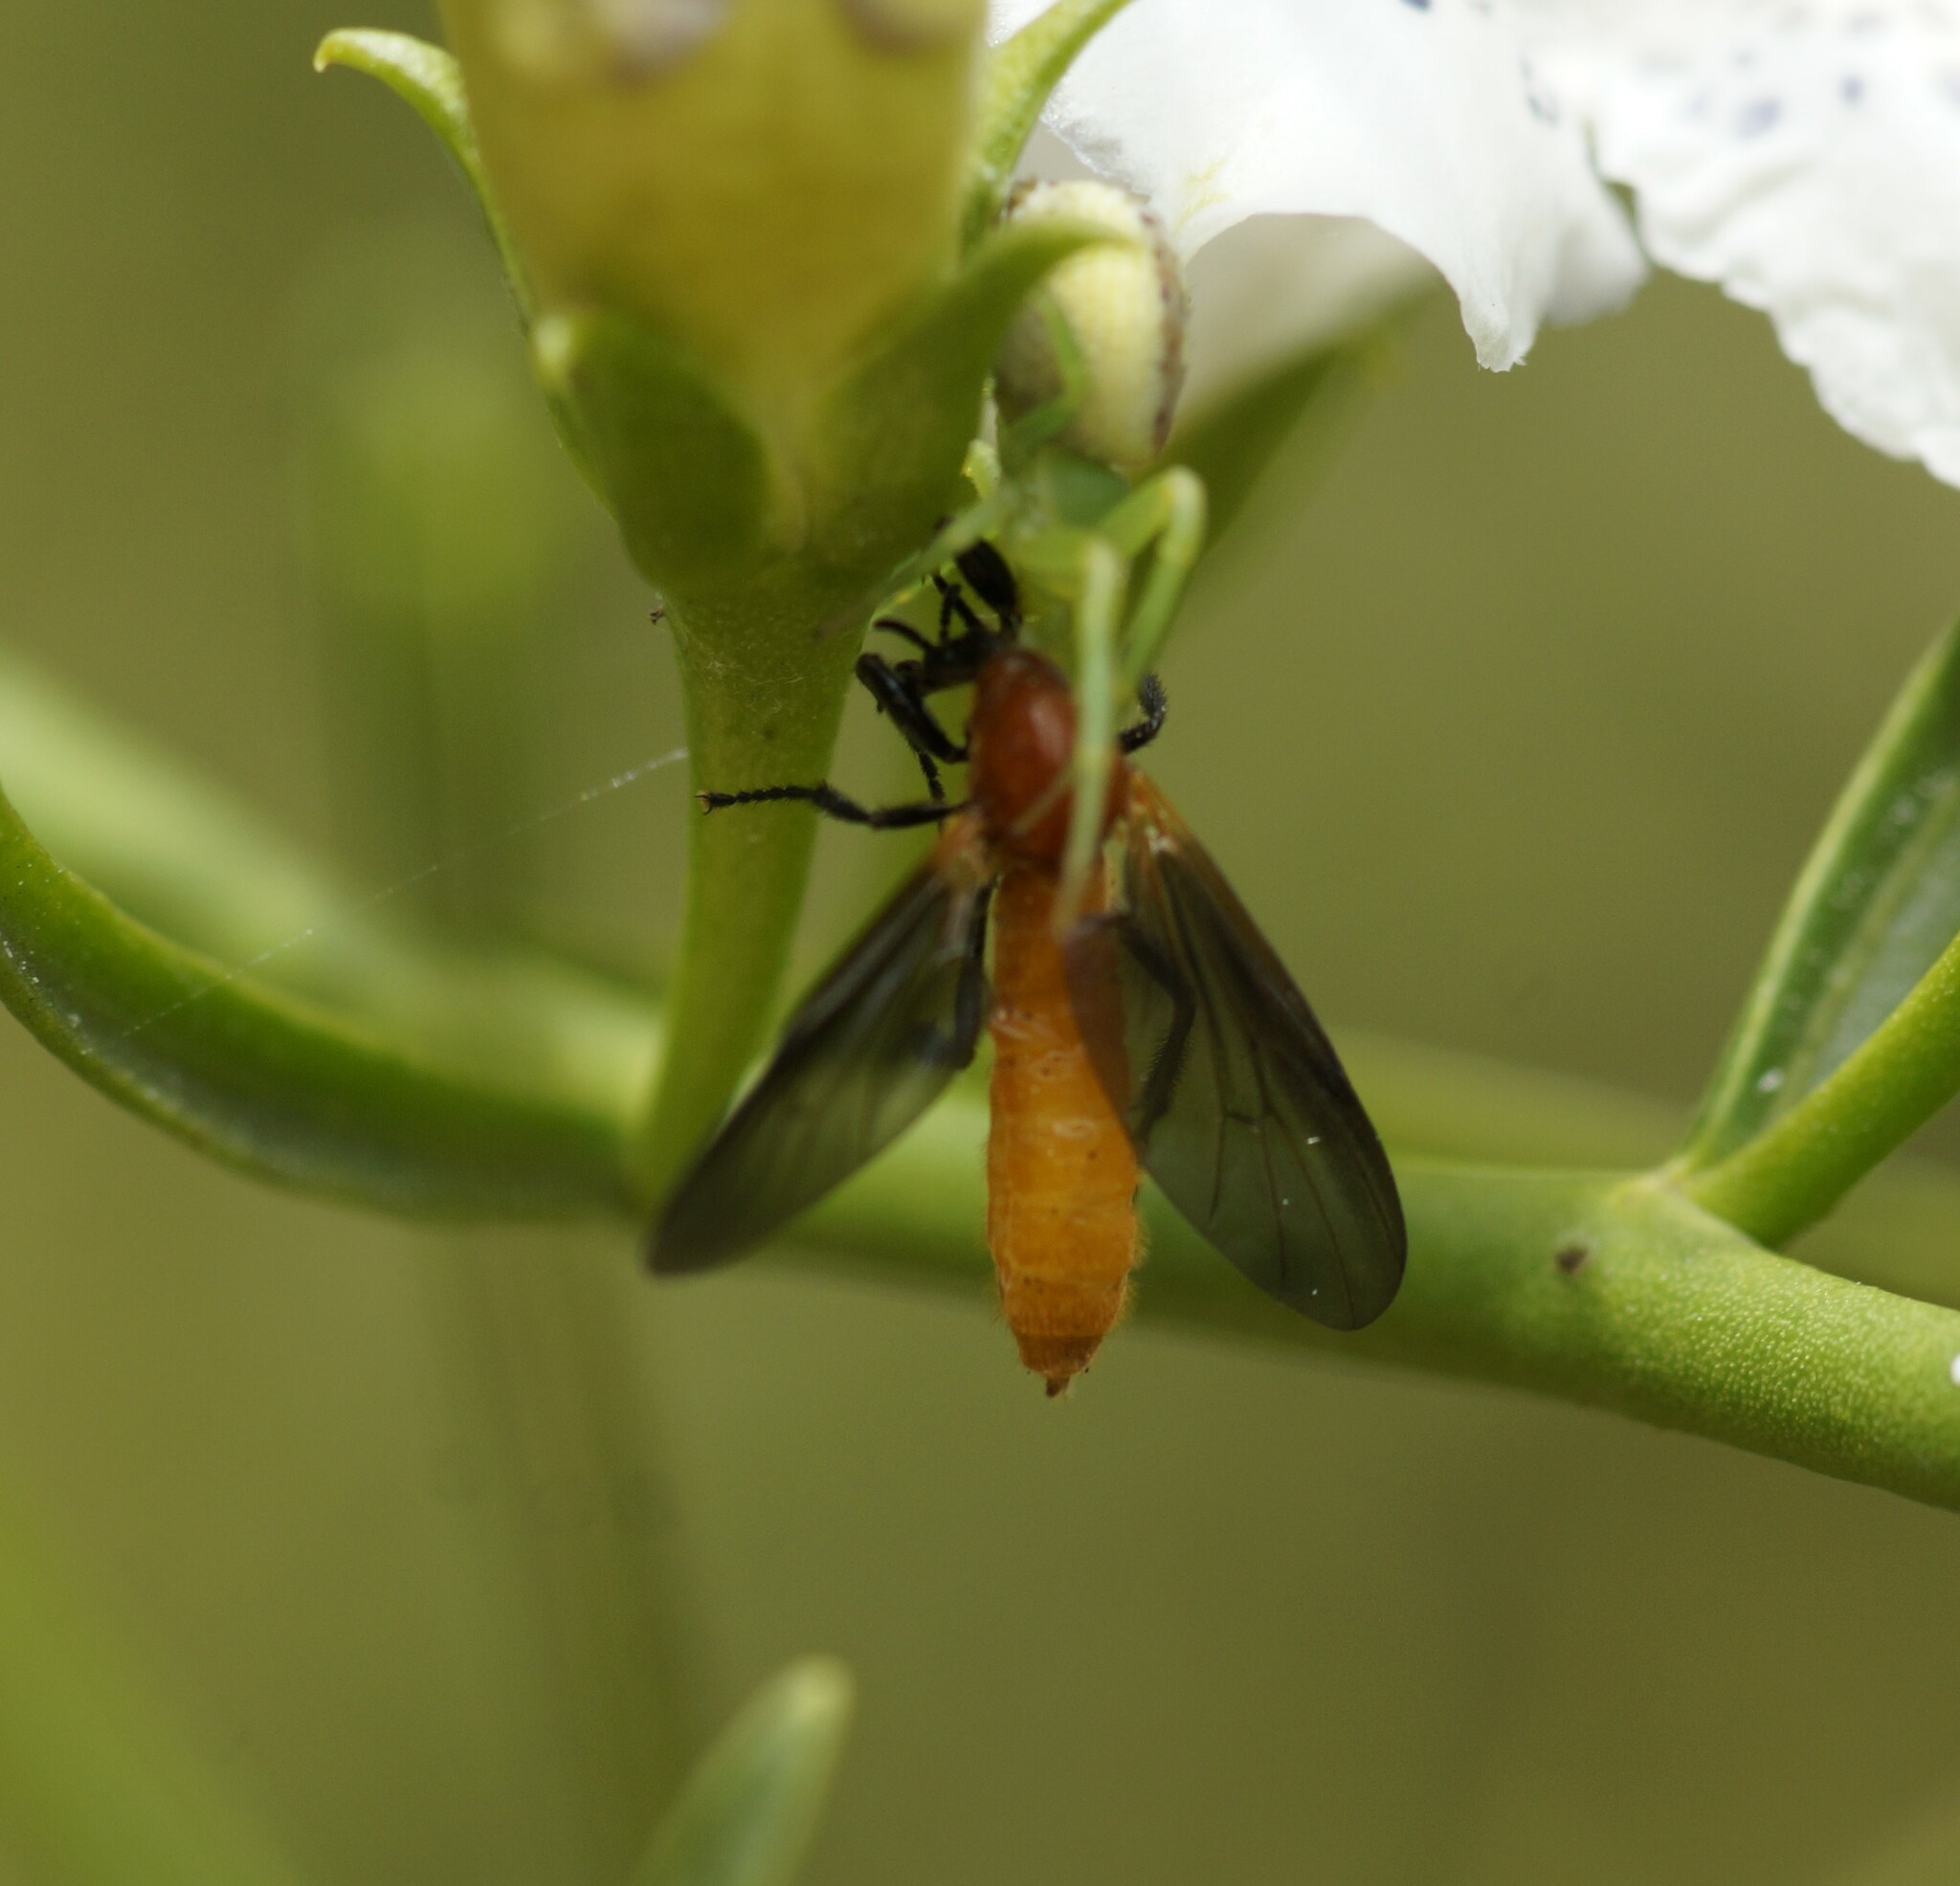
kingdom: Animalia
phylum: Arthropoda
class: Insecta
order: Diptera
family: Bibionidae
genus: Bibio
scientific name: Bibio imitator
